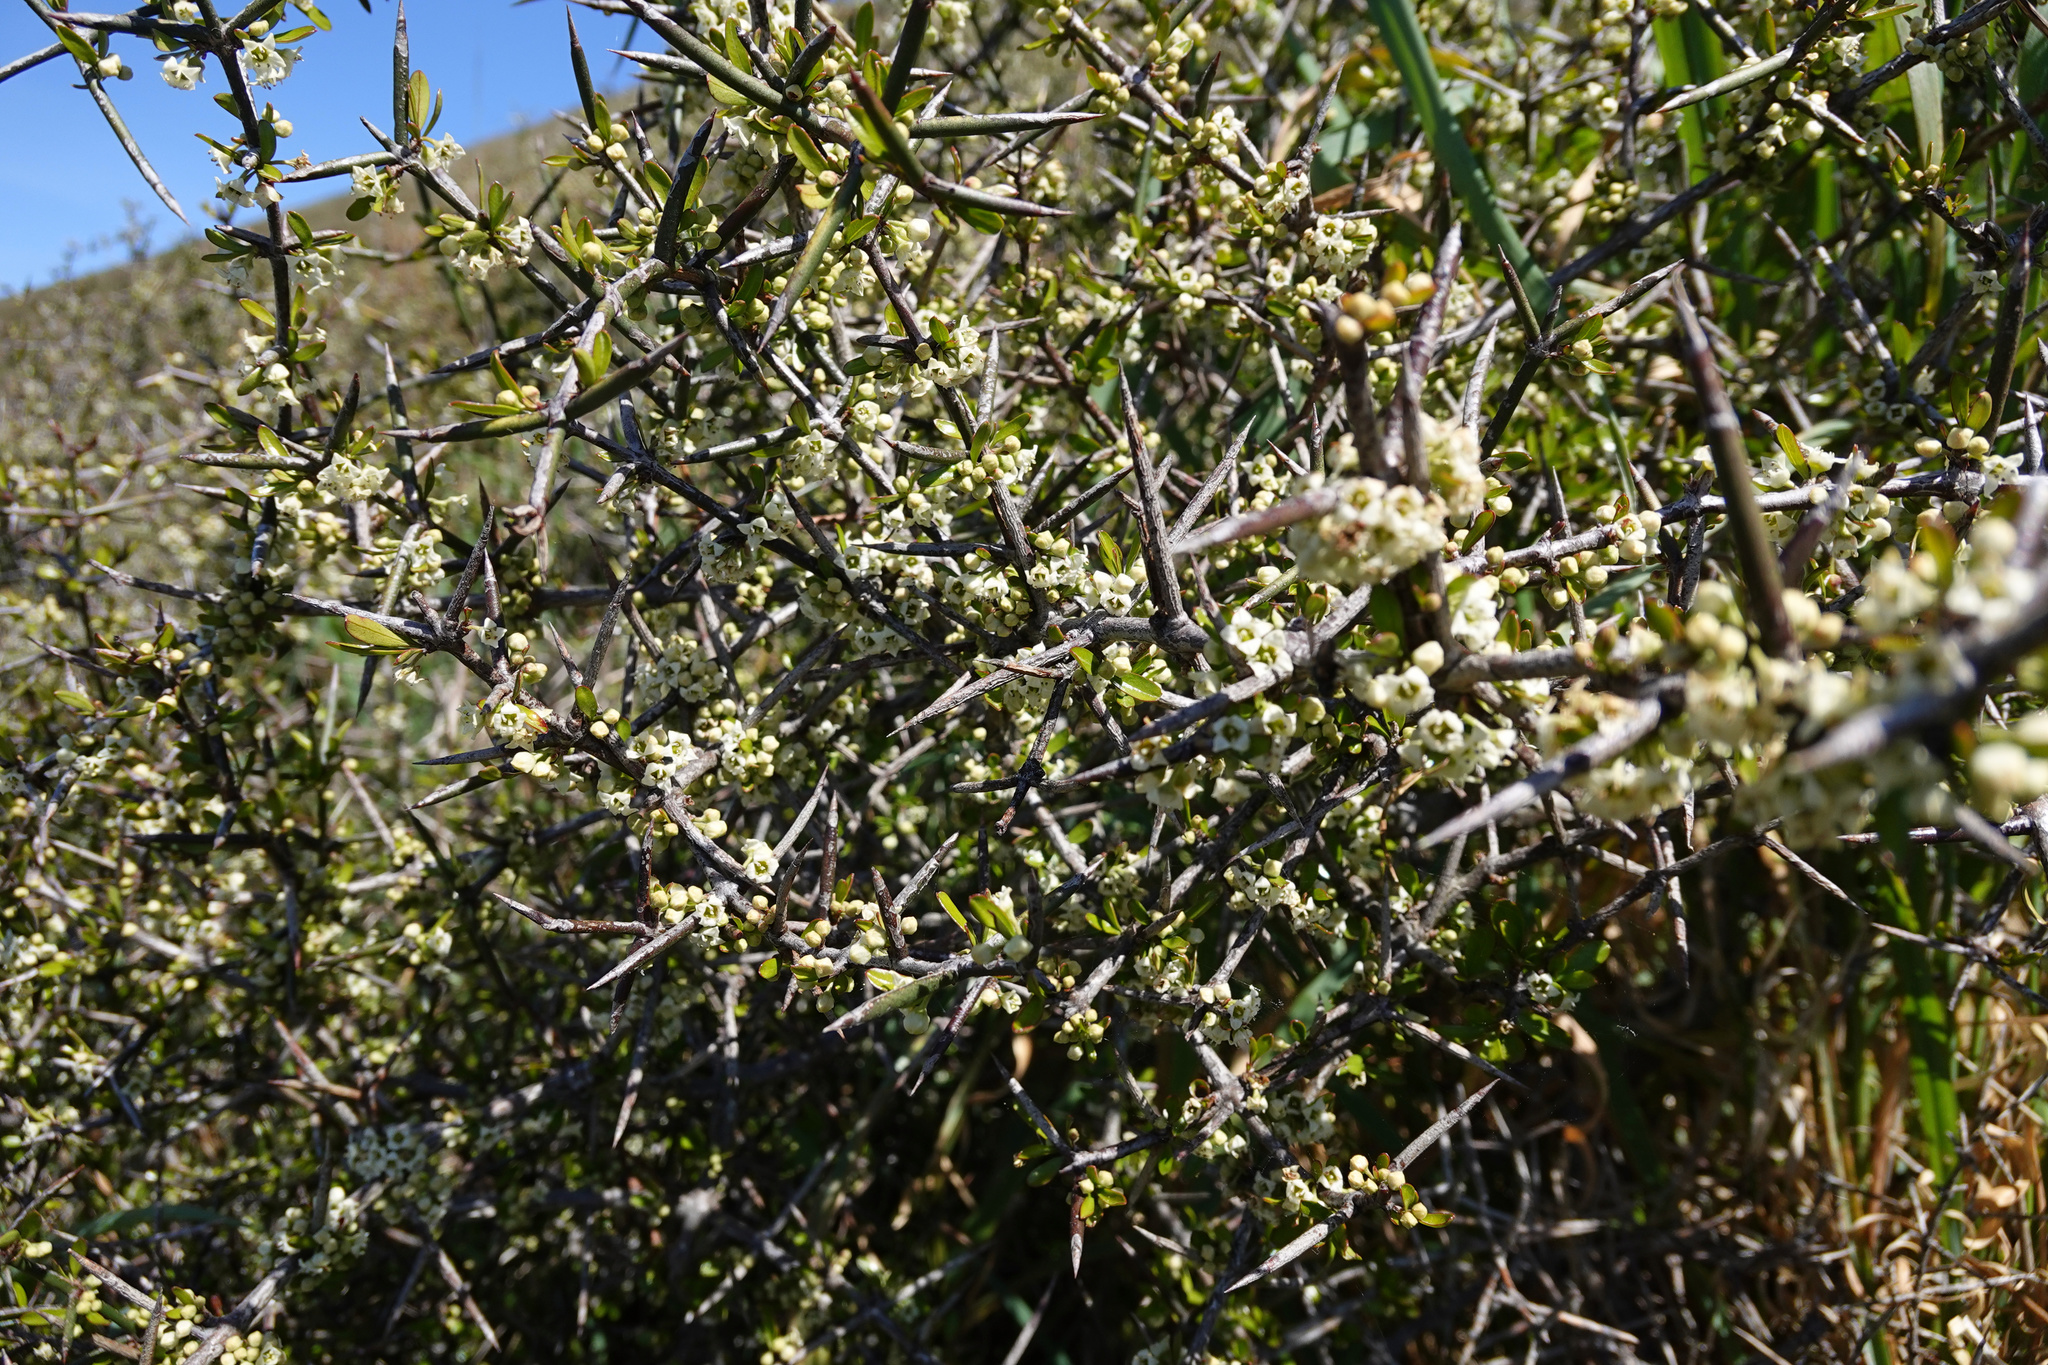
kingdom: Plantae
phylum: Tracheophyta
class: Magnoliopsida
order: Rosales
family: Rhamnaceae
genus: Discaria
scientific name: Discaria toumatou
